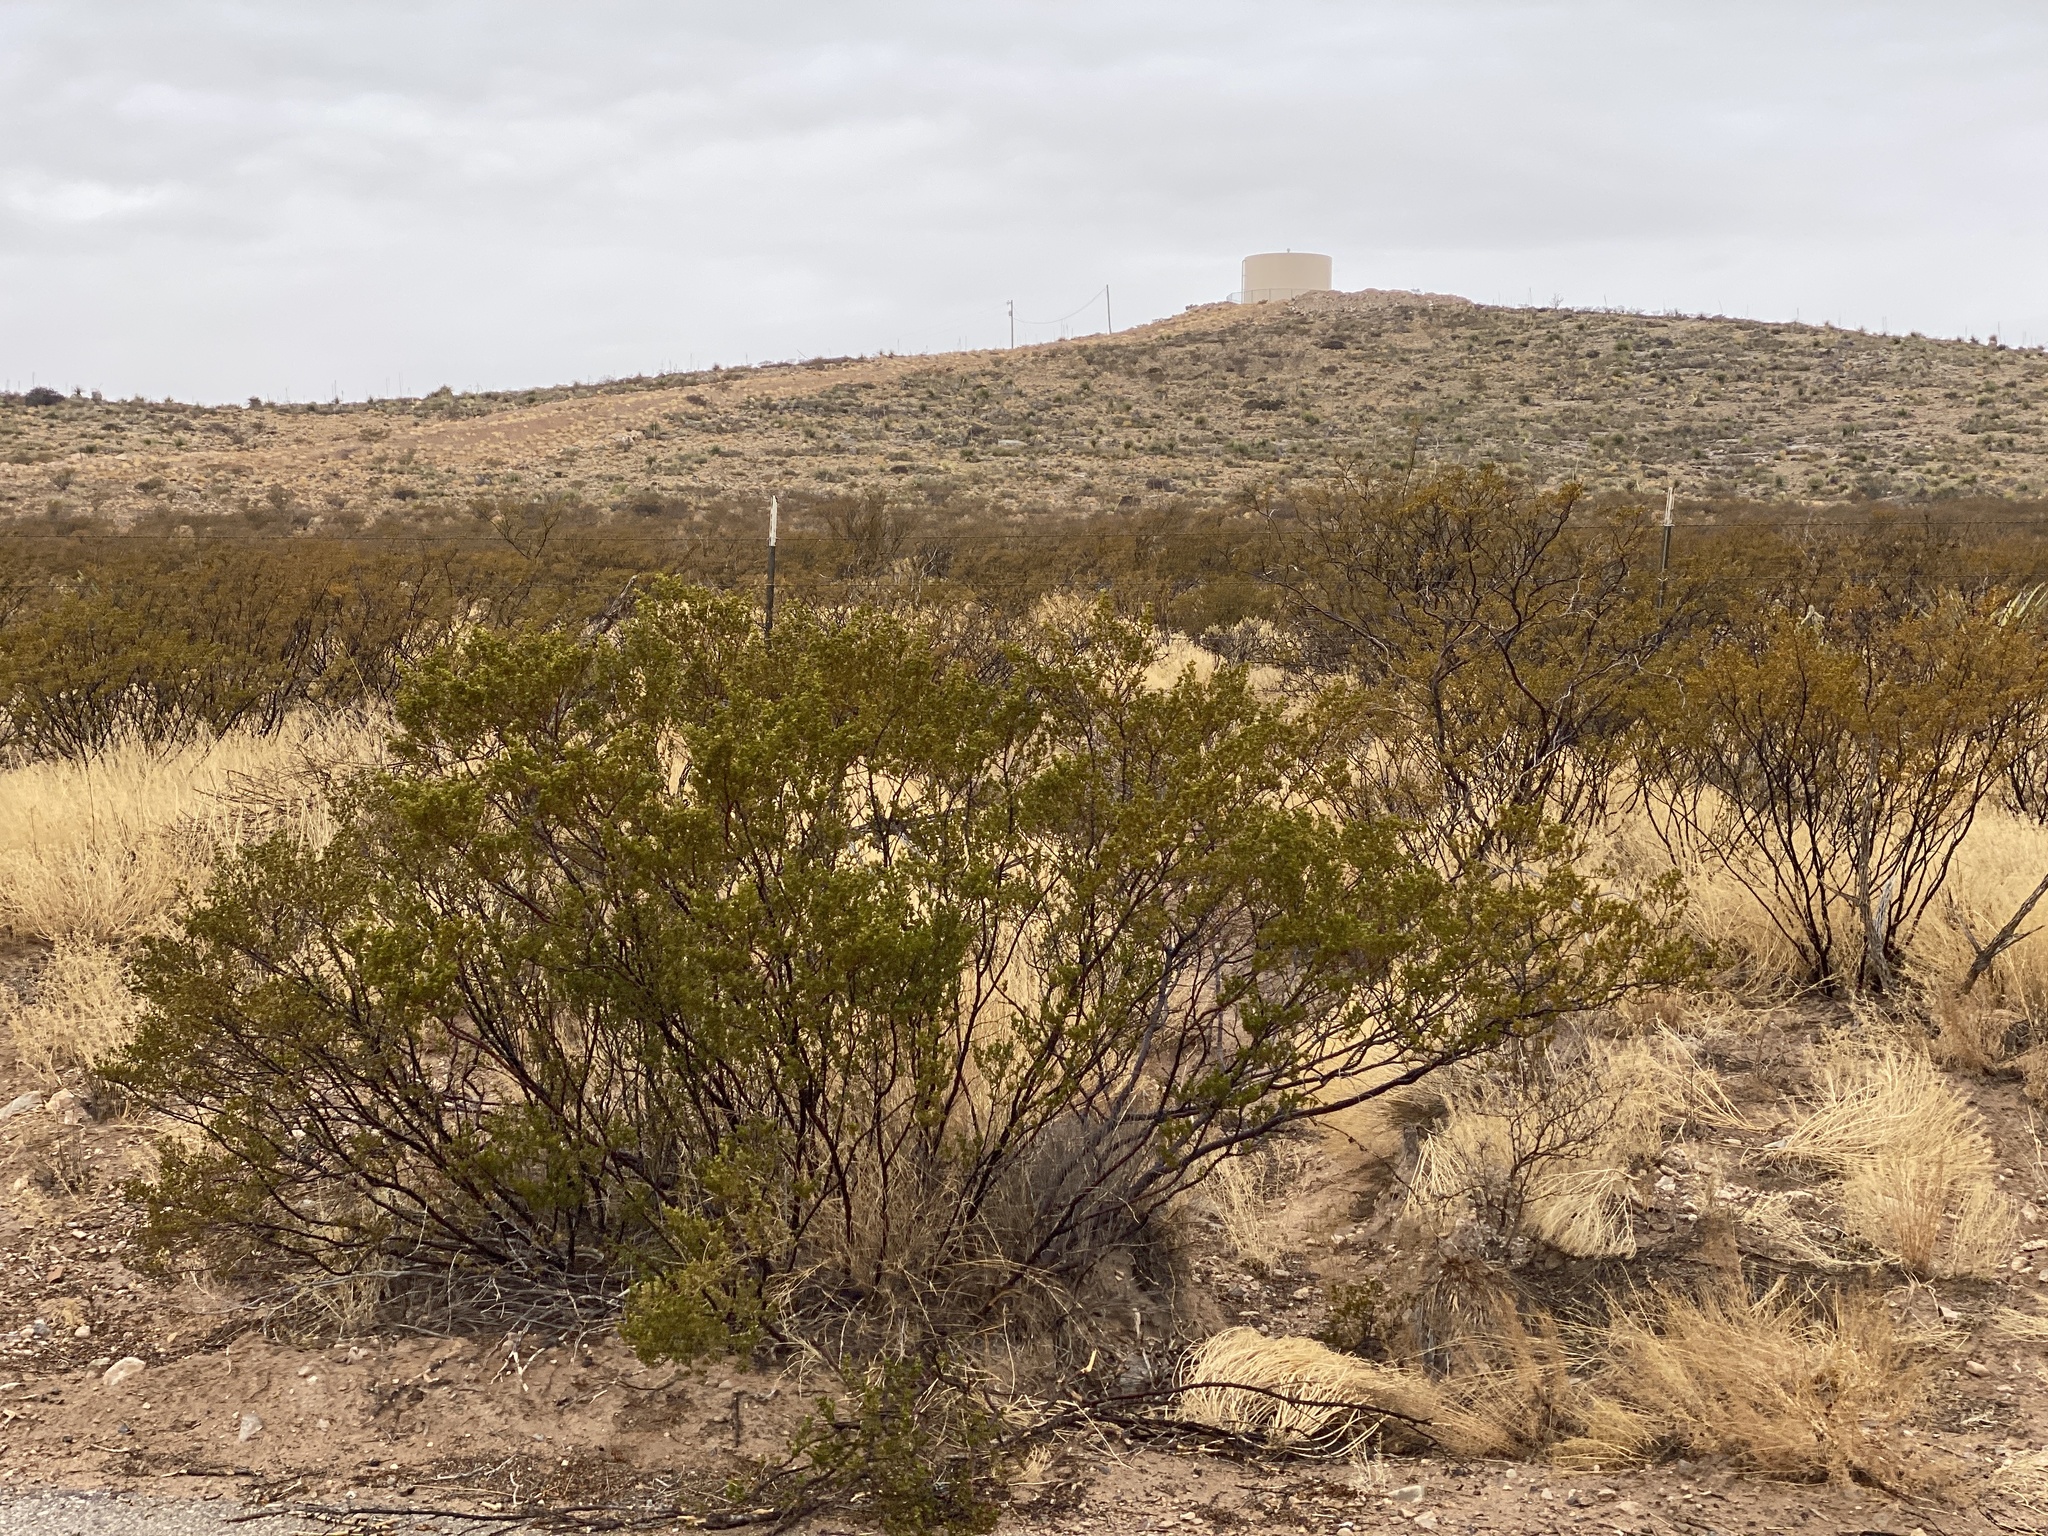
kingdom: Plantae
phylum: Tracheophyta
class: Magnoliopsida
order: Zygophyllales
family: Zygophyllaceae
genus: Larrea
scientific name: Larrea tridentata
